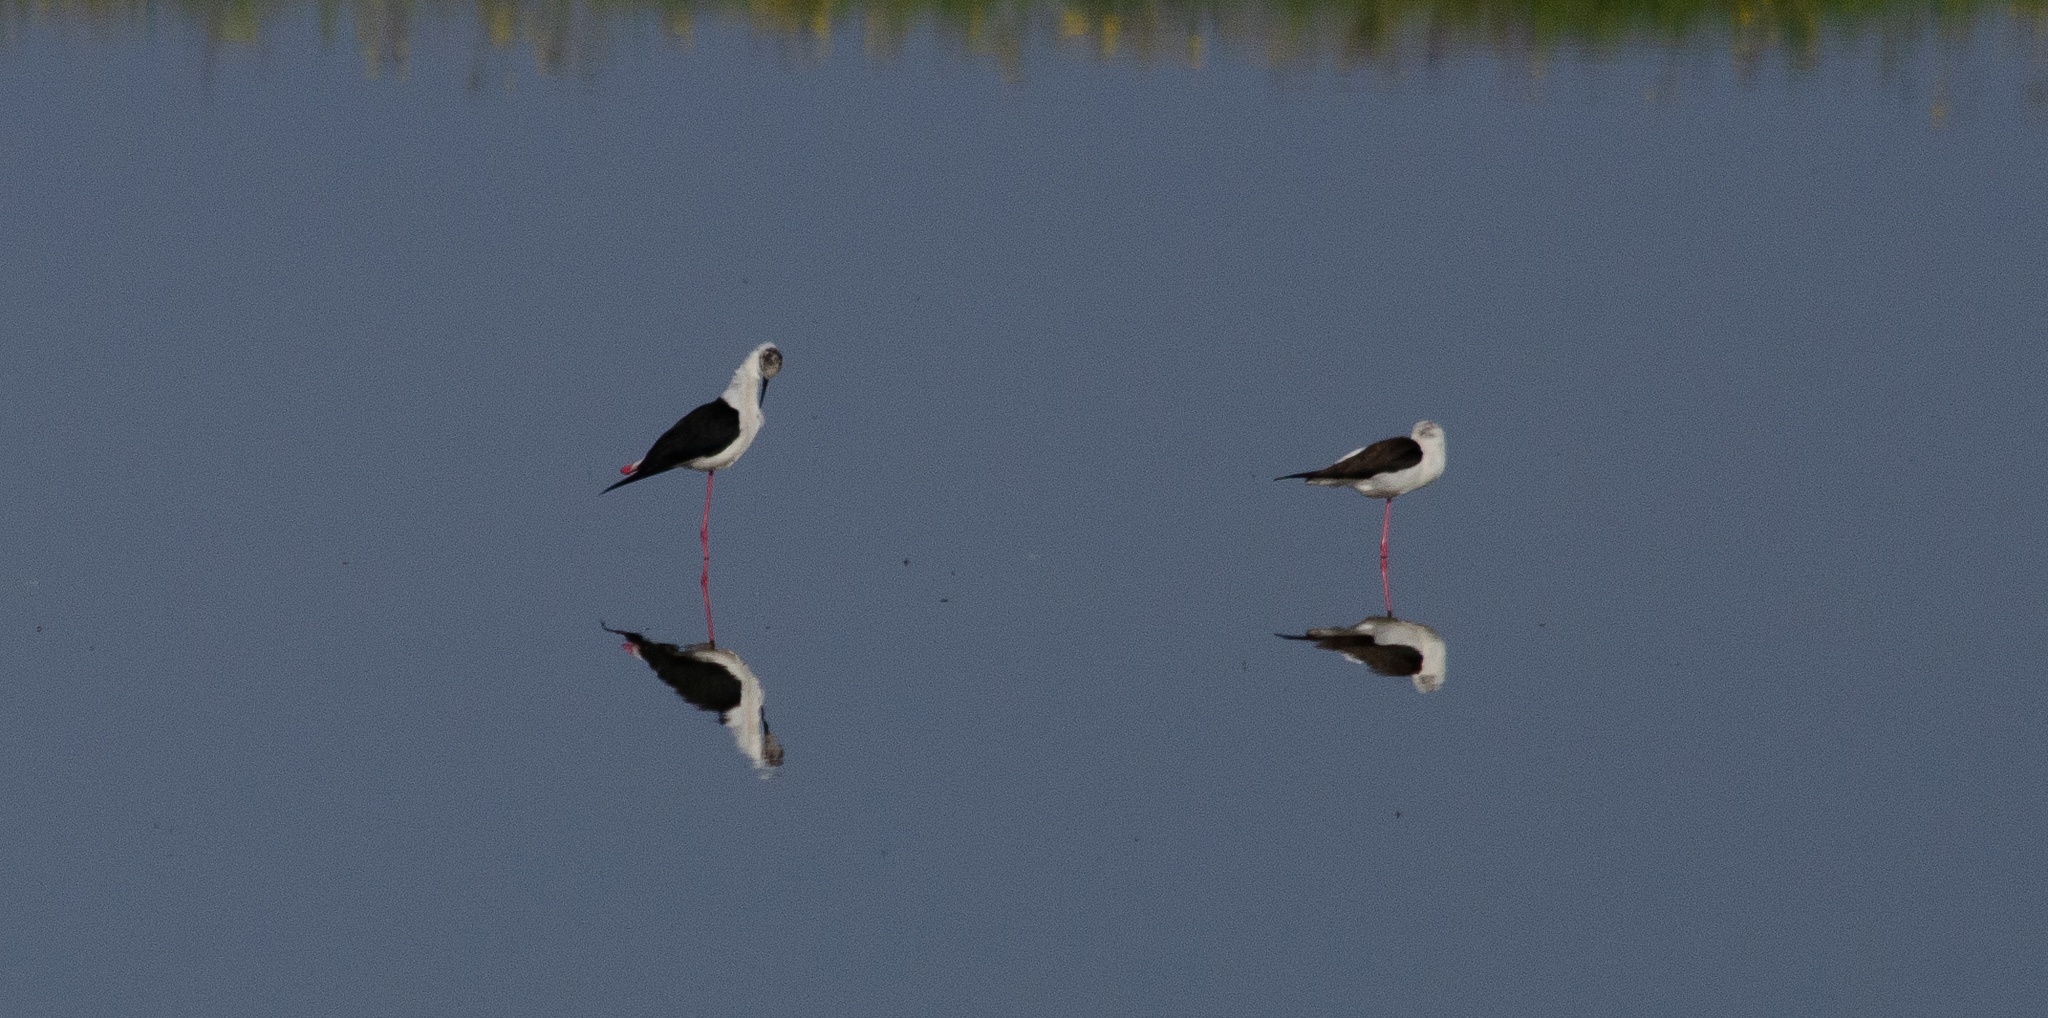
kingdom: Animalia
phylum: Chordata
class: Aves
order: Charadriiformes
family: Recurvirostridae
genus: Himantopus
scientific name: Himantopus himantopus
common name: Black-winged stilt
